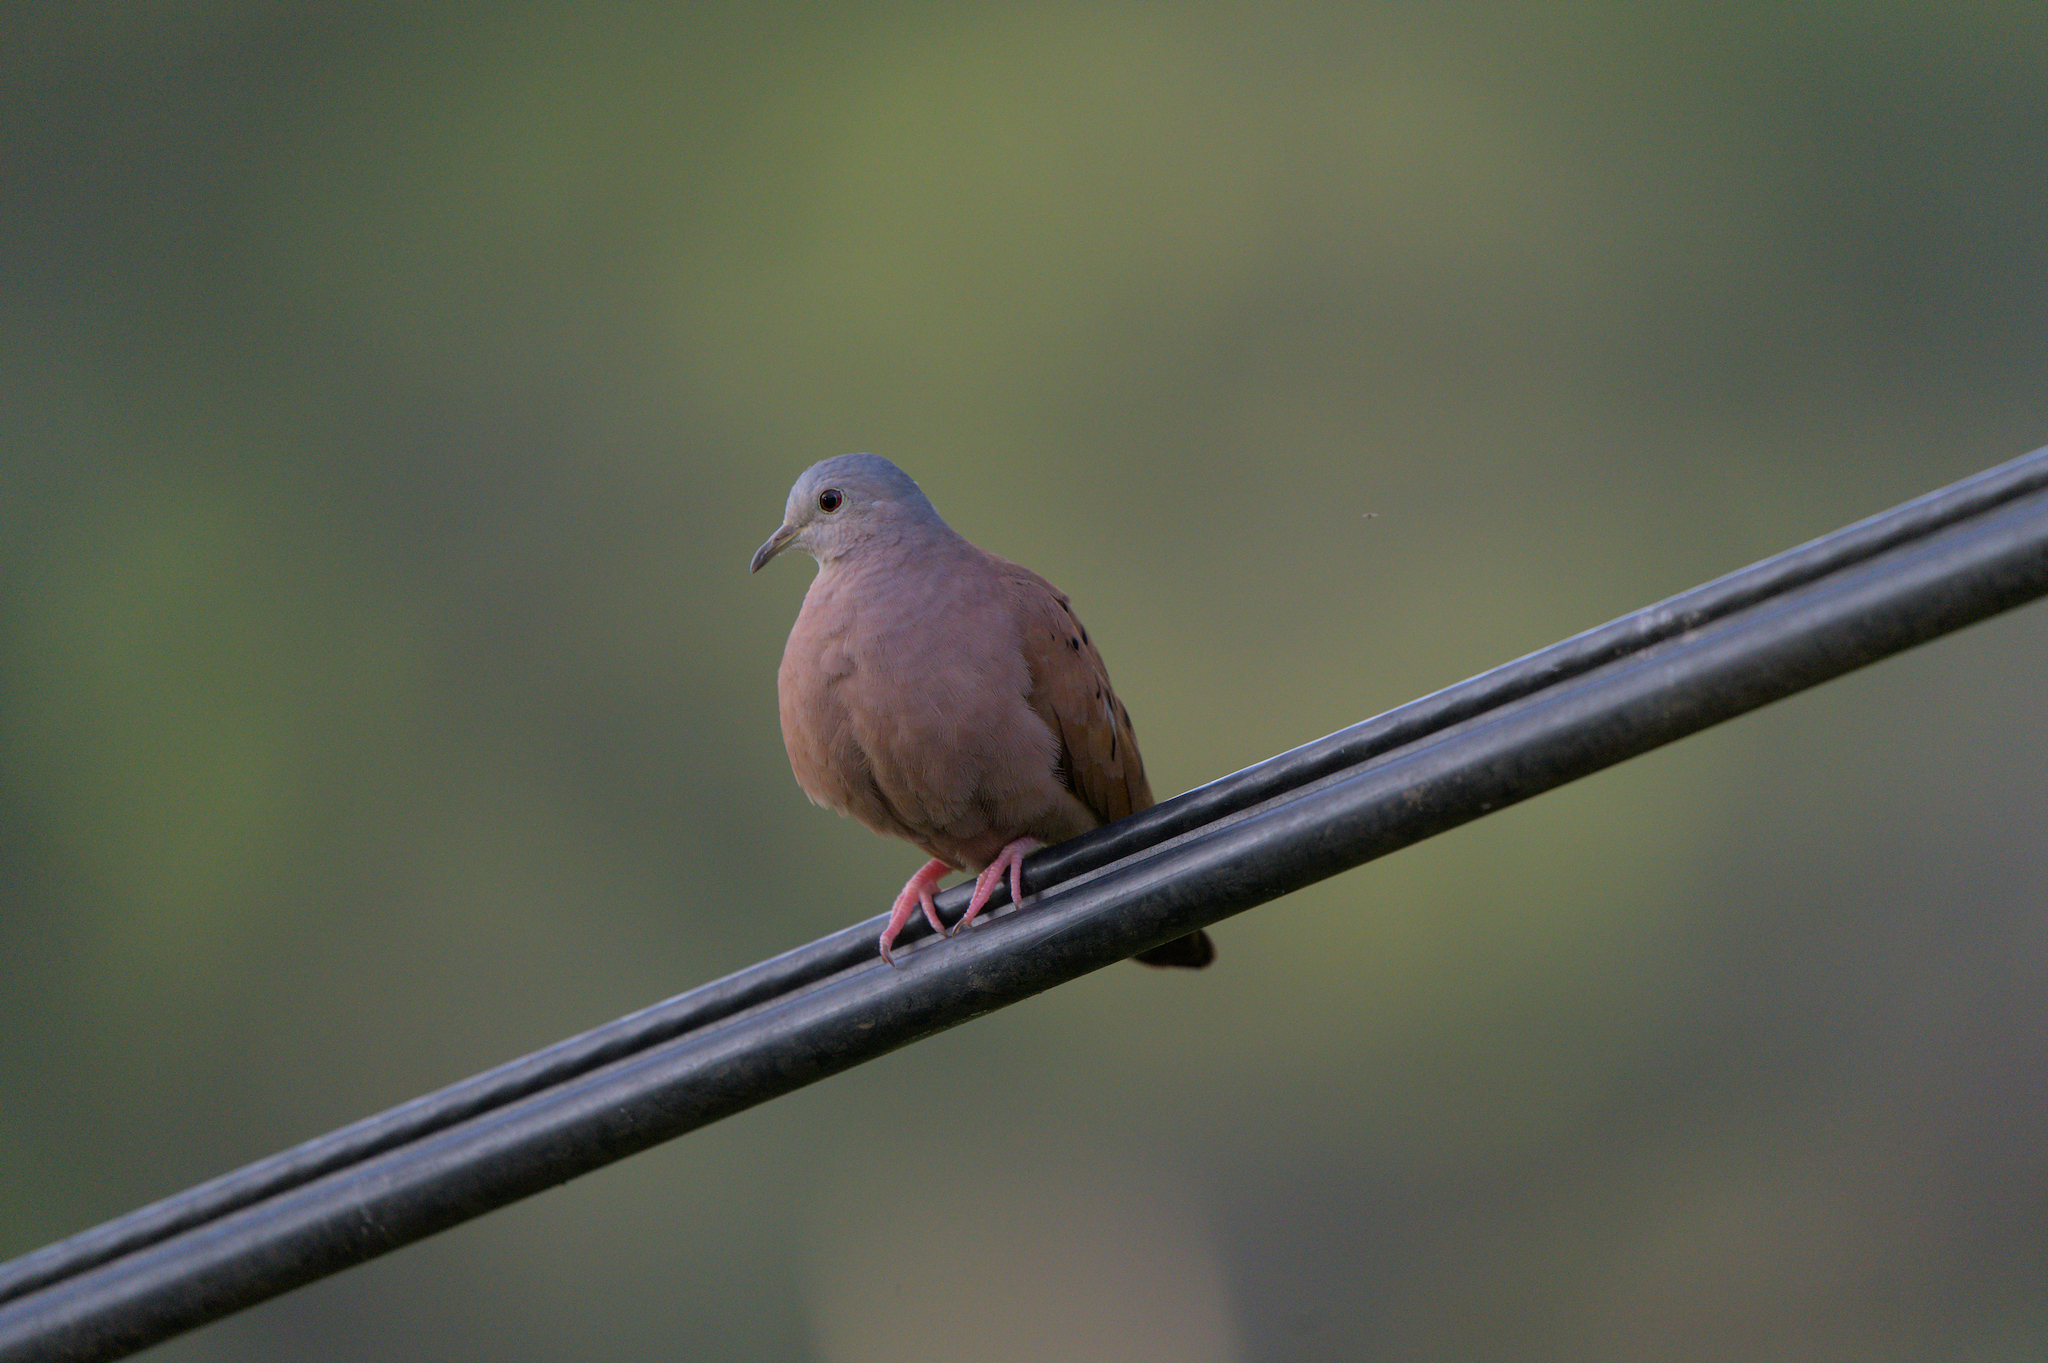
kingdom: Animalia
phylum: Chordata
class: Aves
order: Columbiformes
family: Columbidae
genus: Columbina
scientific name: Columbina talpacoti
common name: Ruddy ground dove
